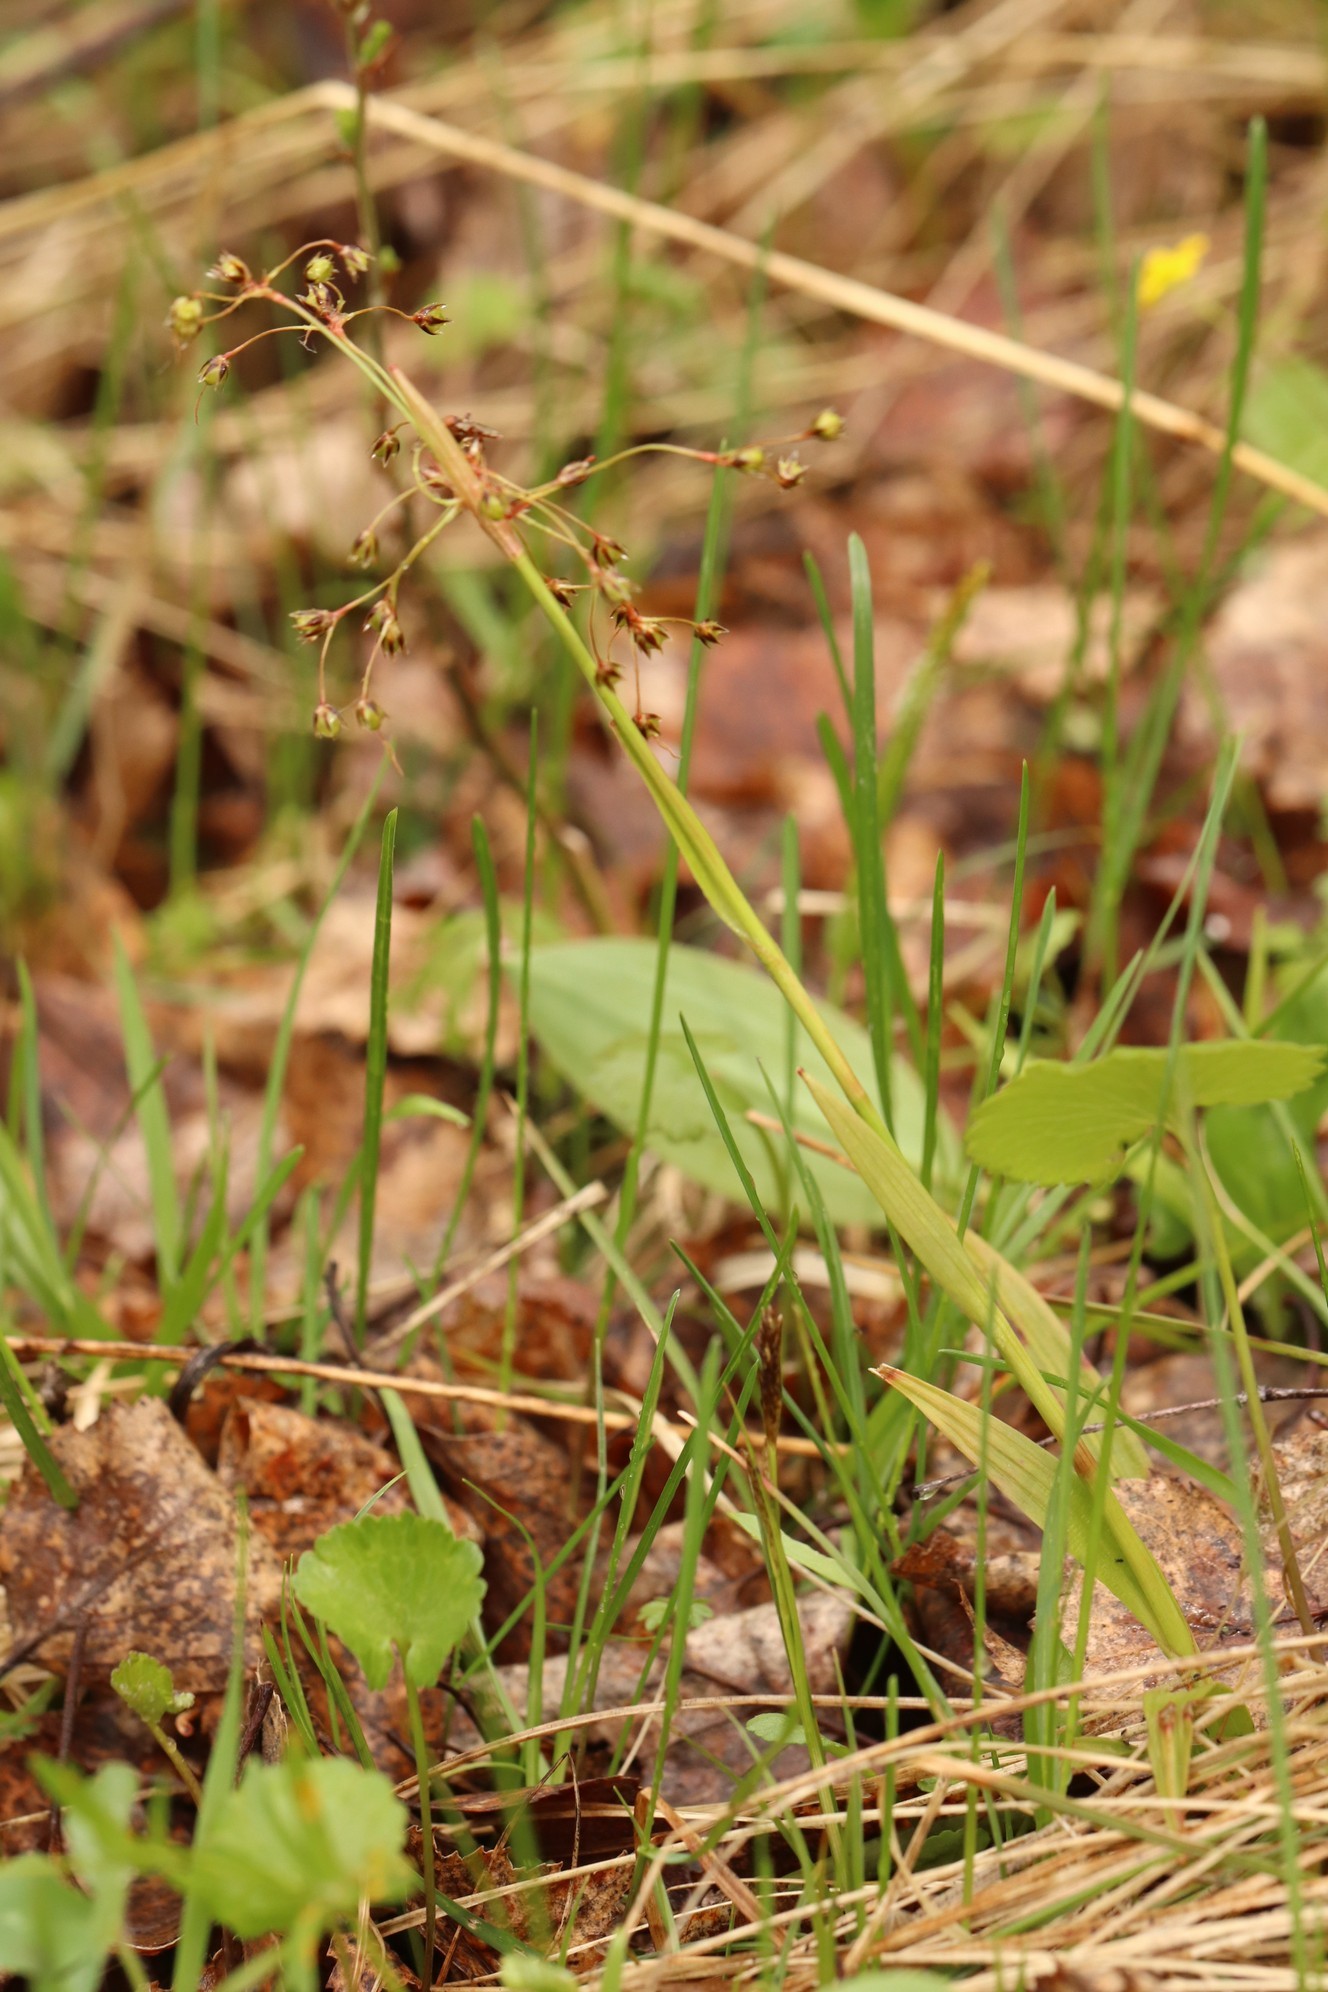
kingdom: Plantae
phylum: Tracheophyta
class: Liliopsida
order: Poales
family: Juncaceae
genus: Luzula
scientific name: Luzula pilosa
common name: Hairy wood-rush
